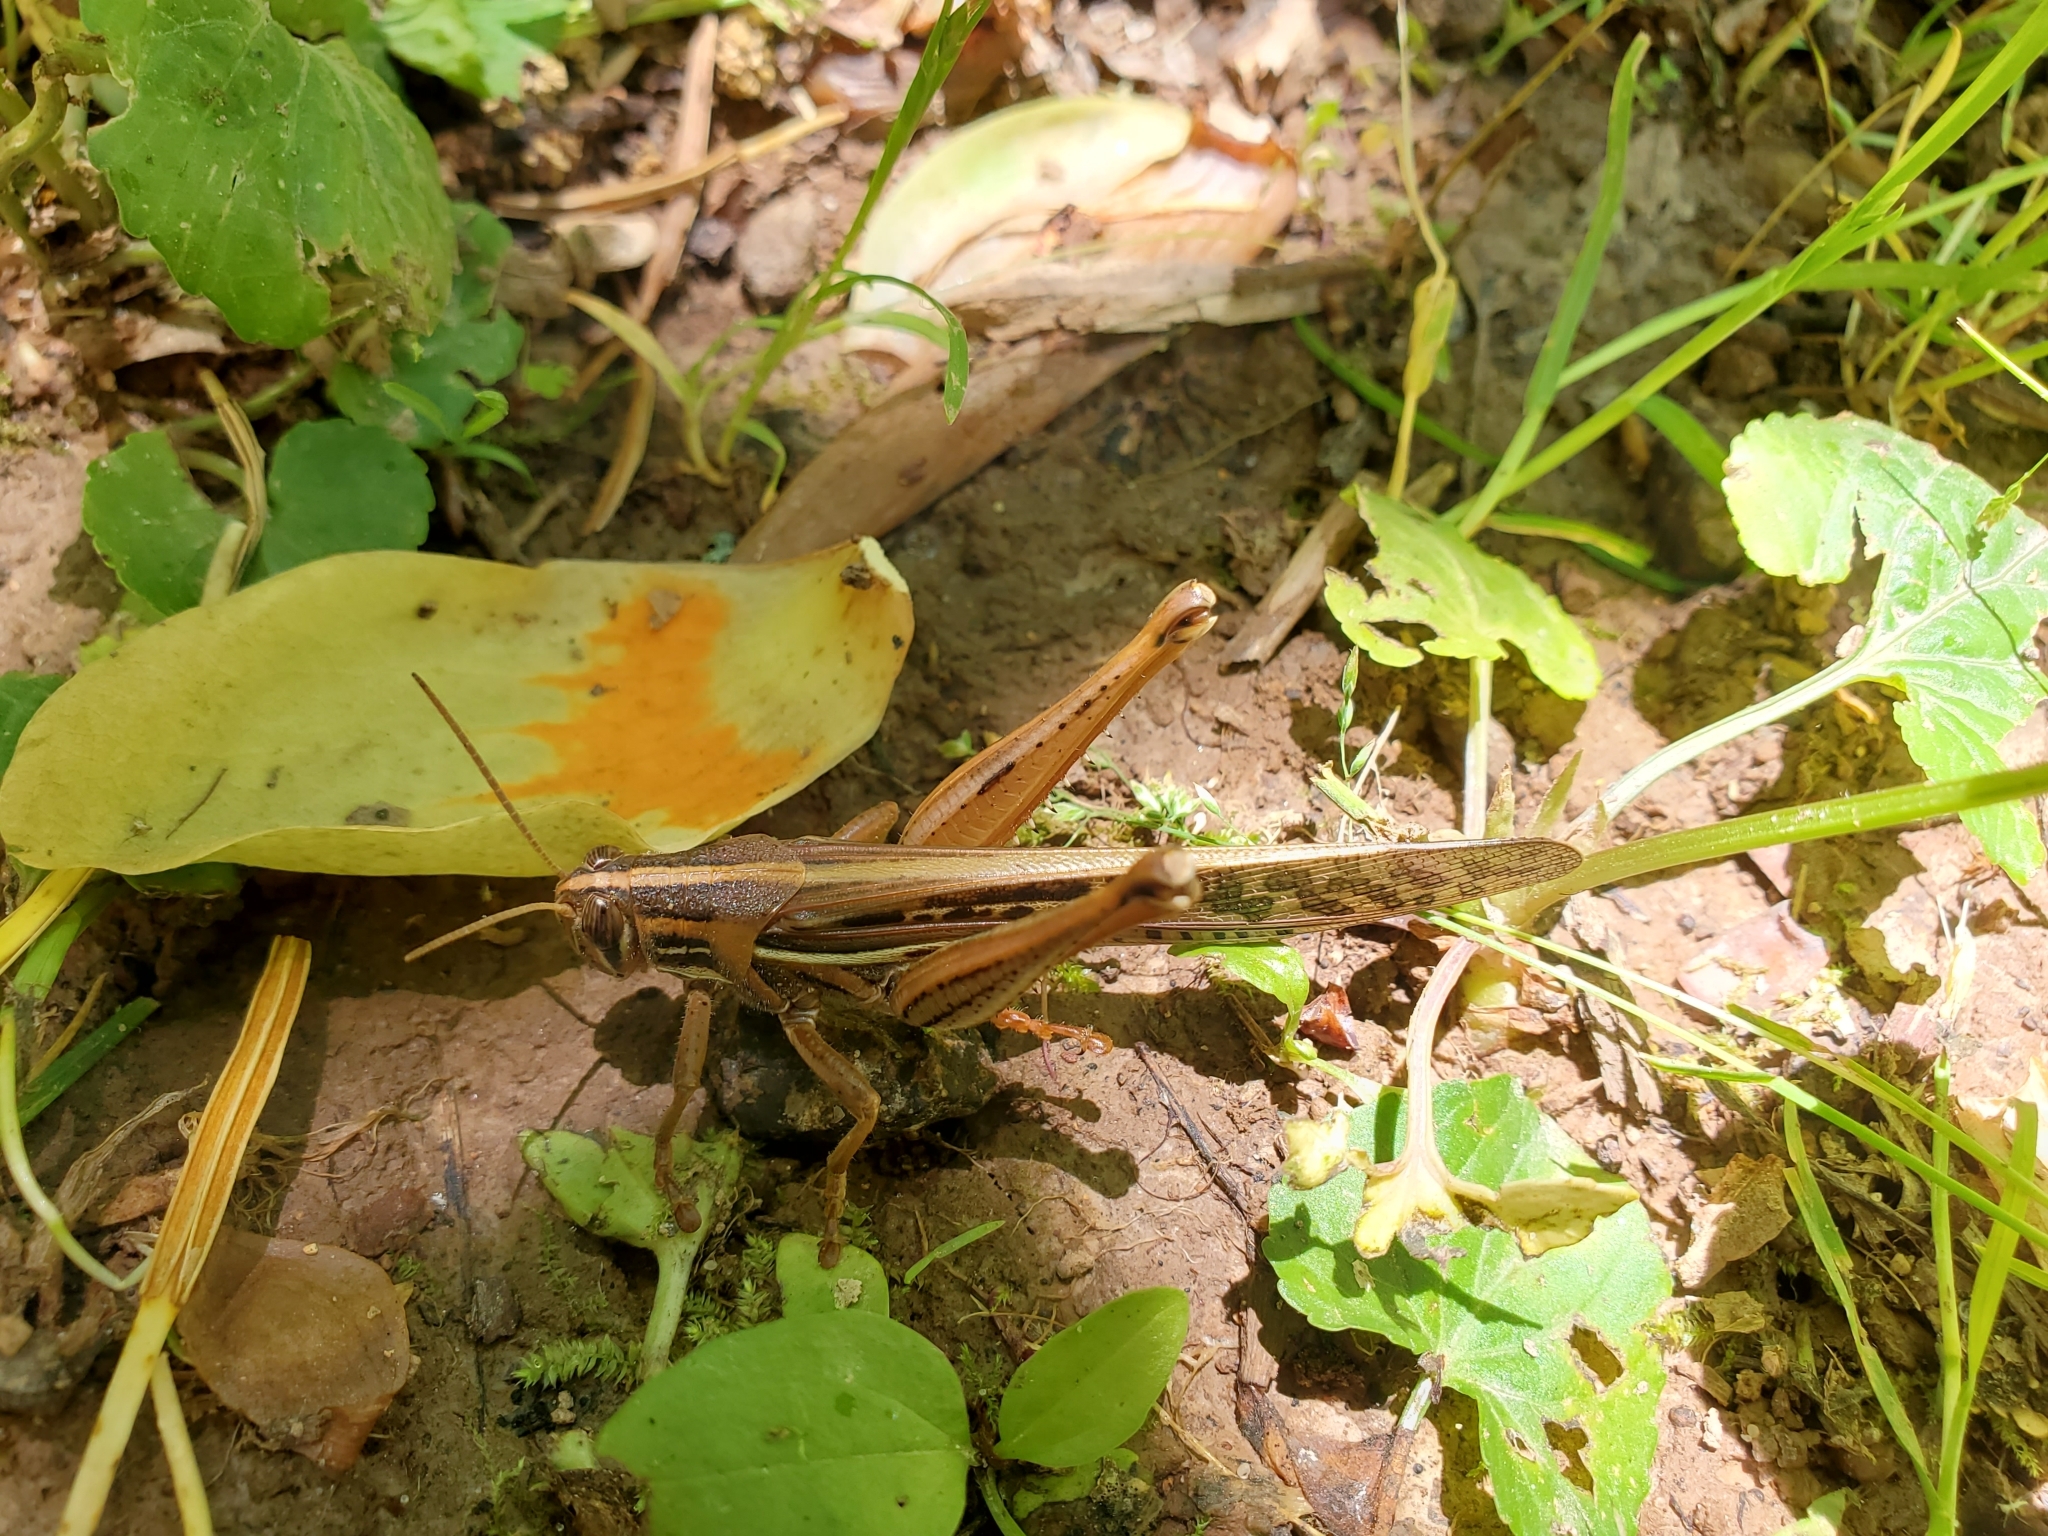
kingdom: Animalia
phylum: Arthropoda
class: Insecta
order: Orthoptera
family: Acrididae
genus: Schistocerca
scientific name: Schistocerca americana
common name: American bird locust
